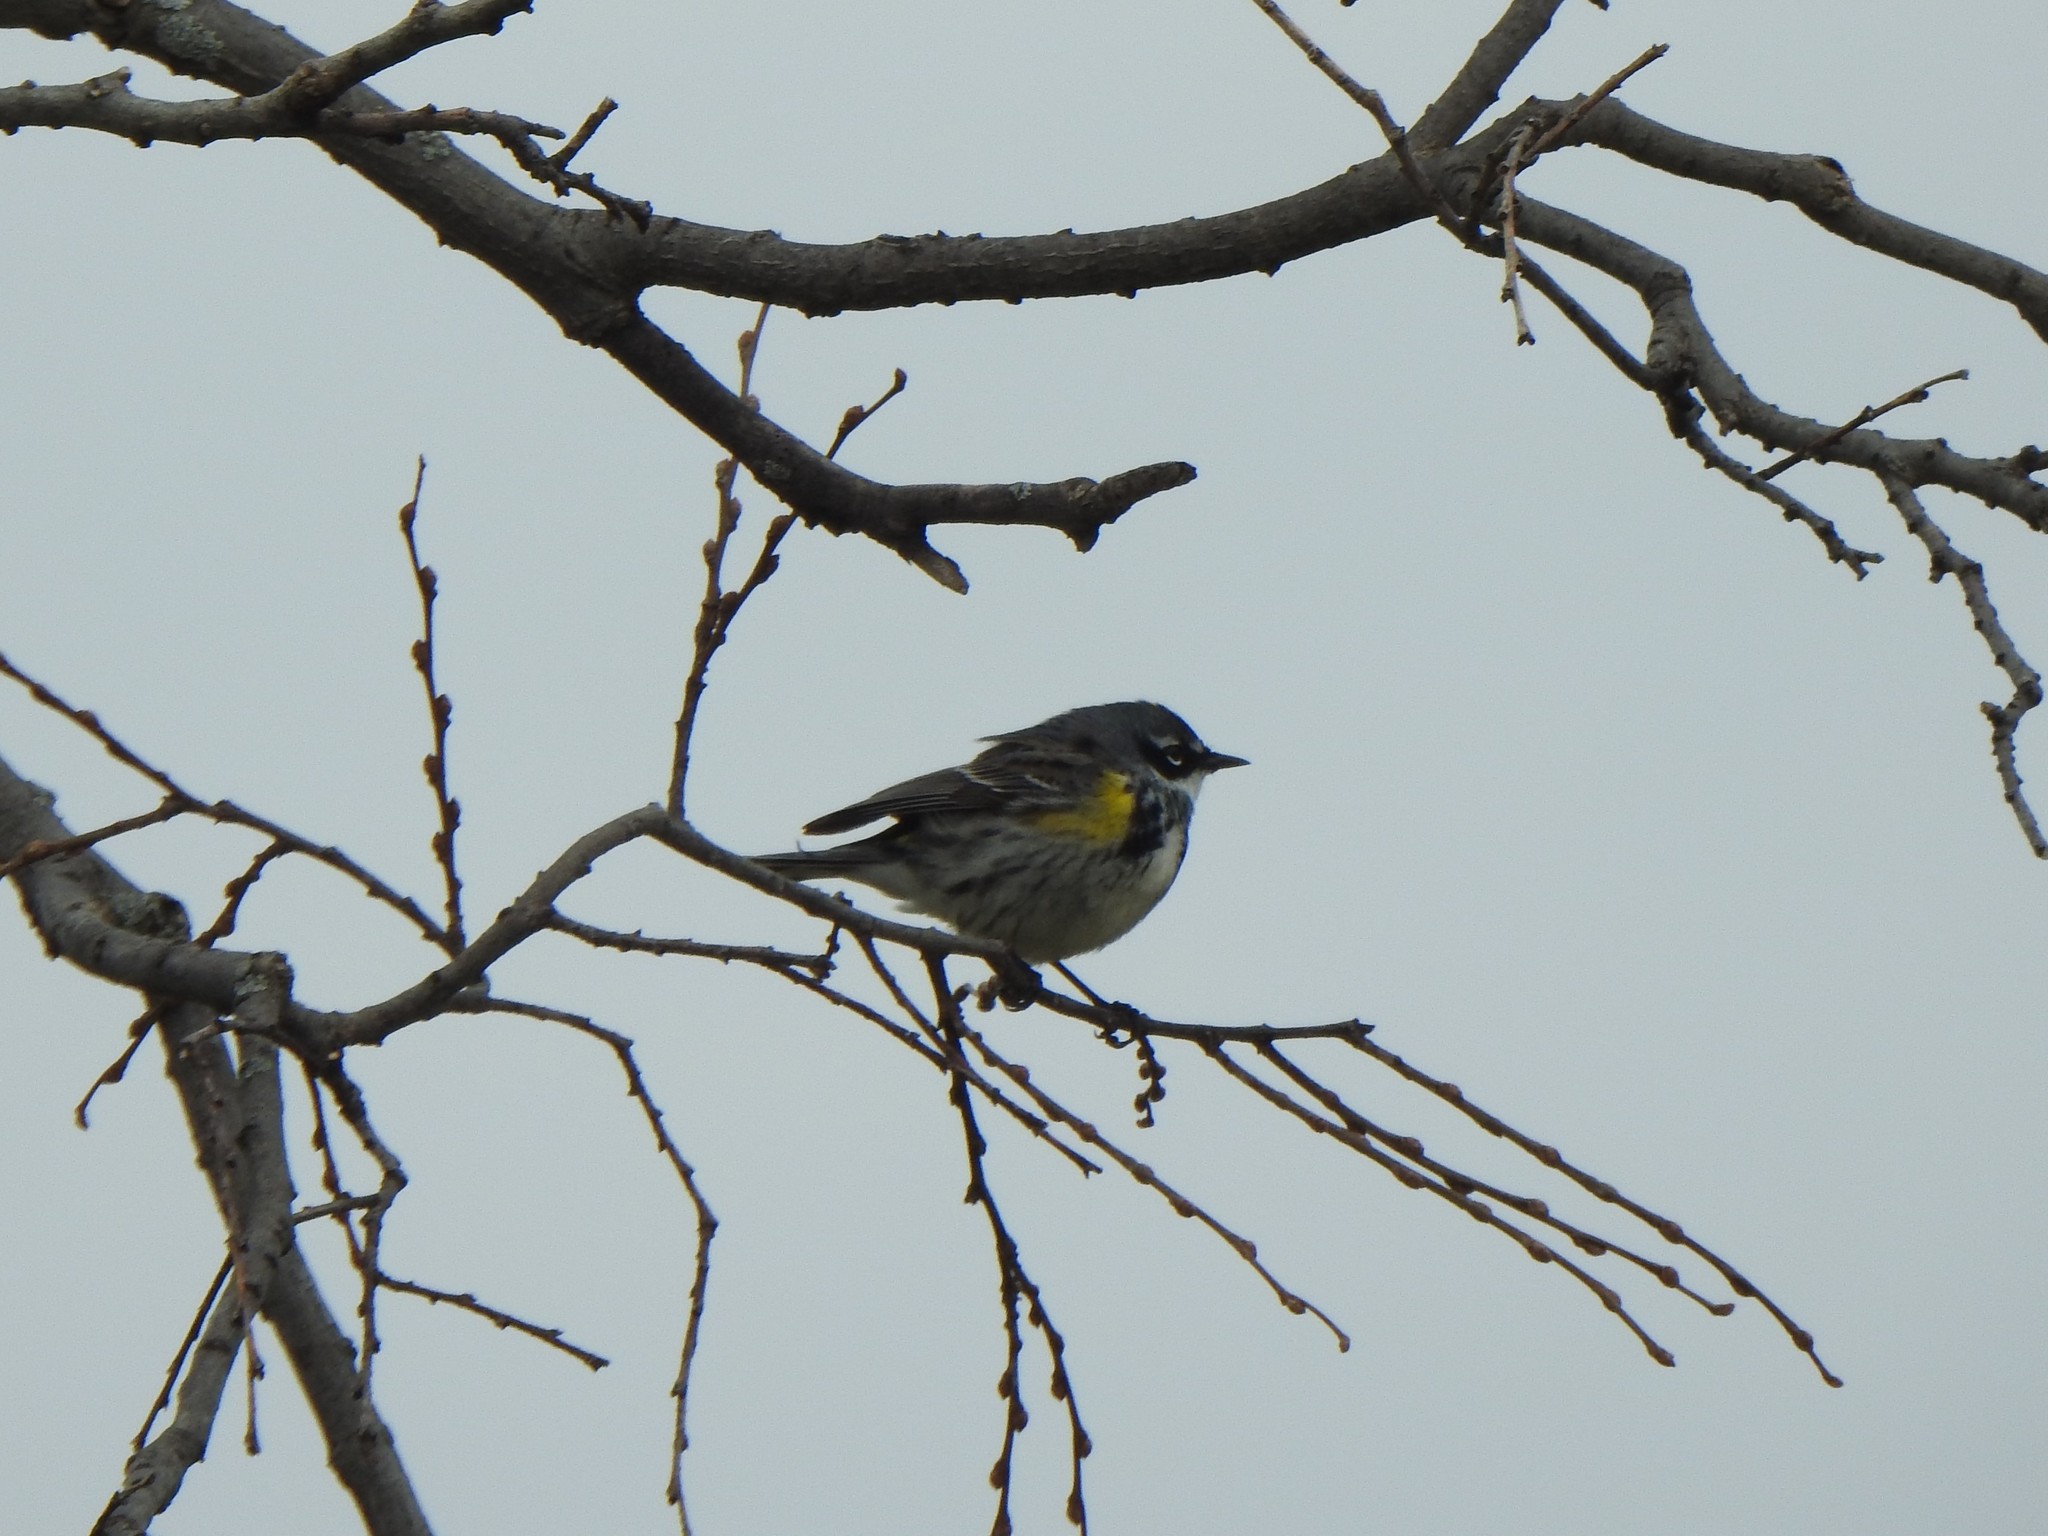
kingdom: Animalia
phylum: Chordata
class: Aves
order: Passeriformes
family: Parulidae
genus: Setophaga
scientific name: Setophaga coronata
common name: Myrtle warbler
